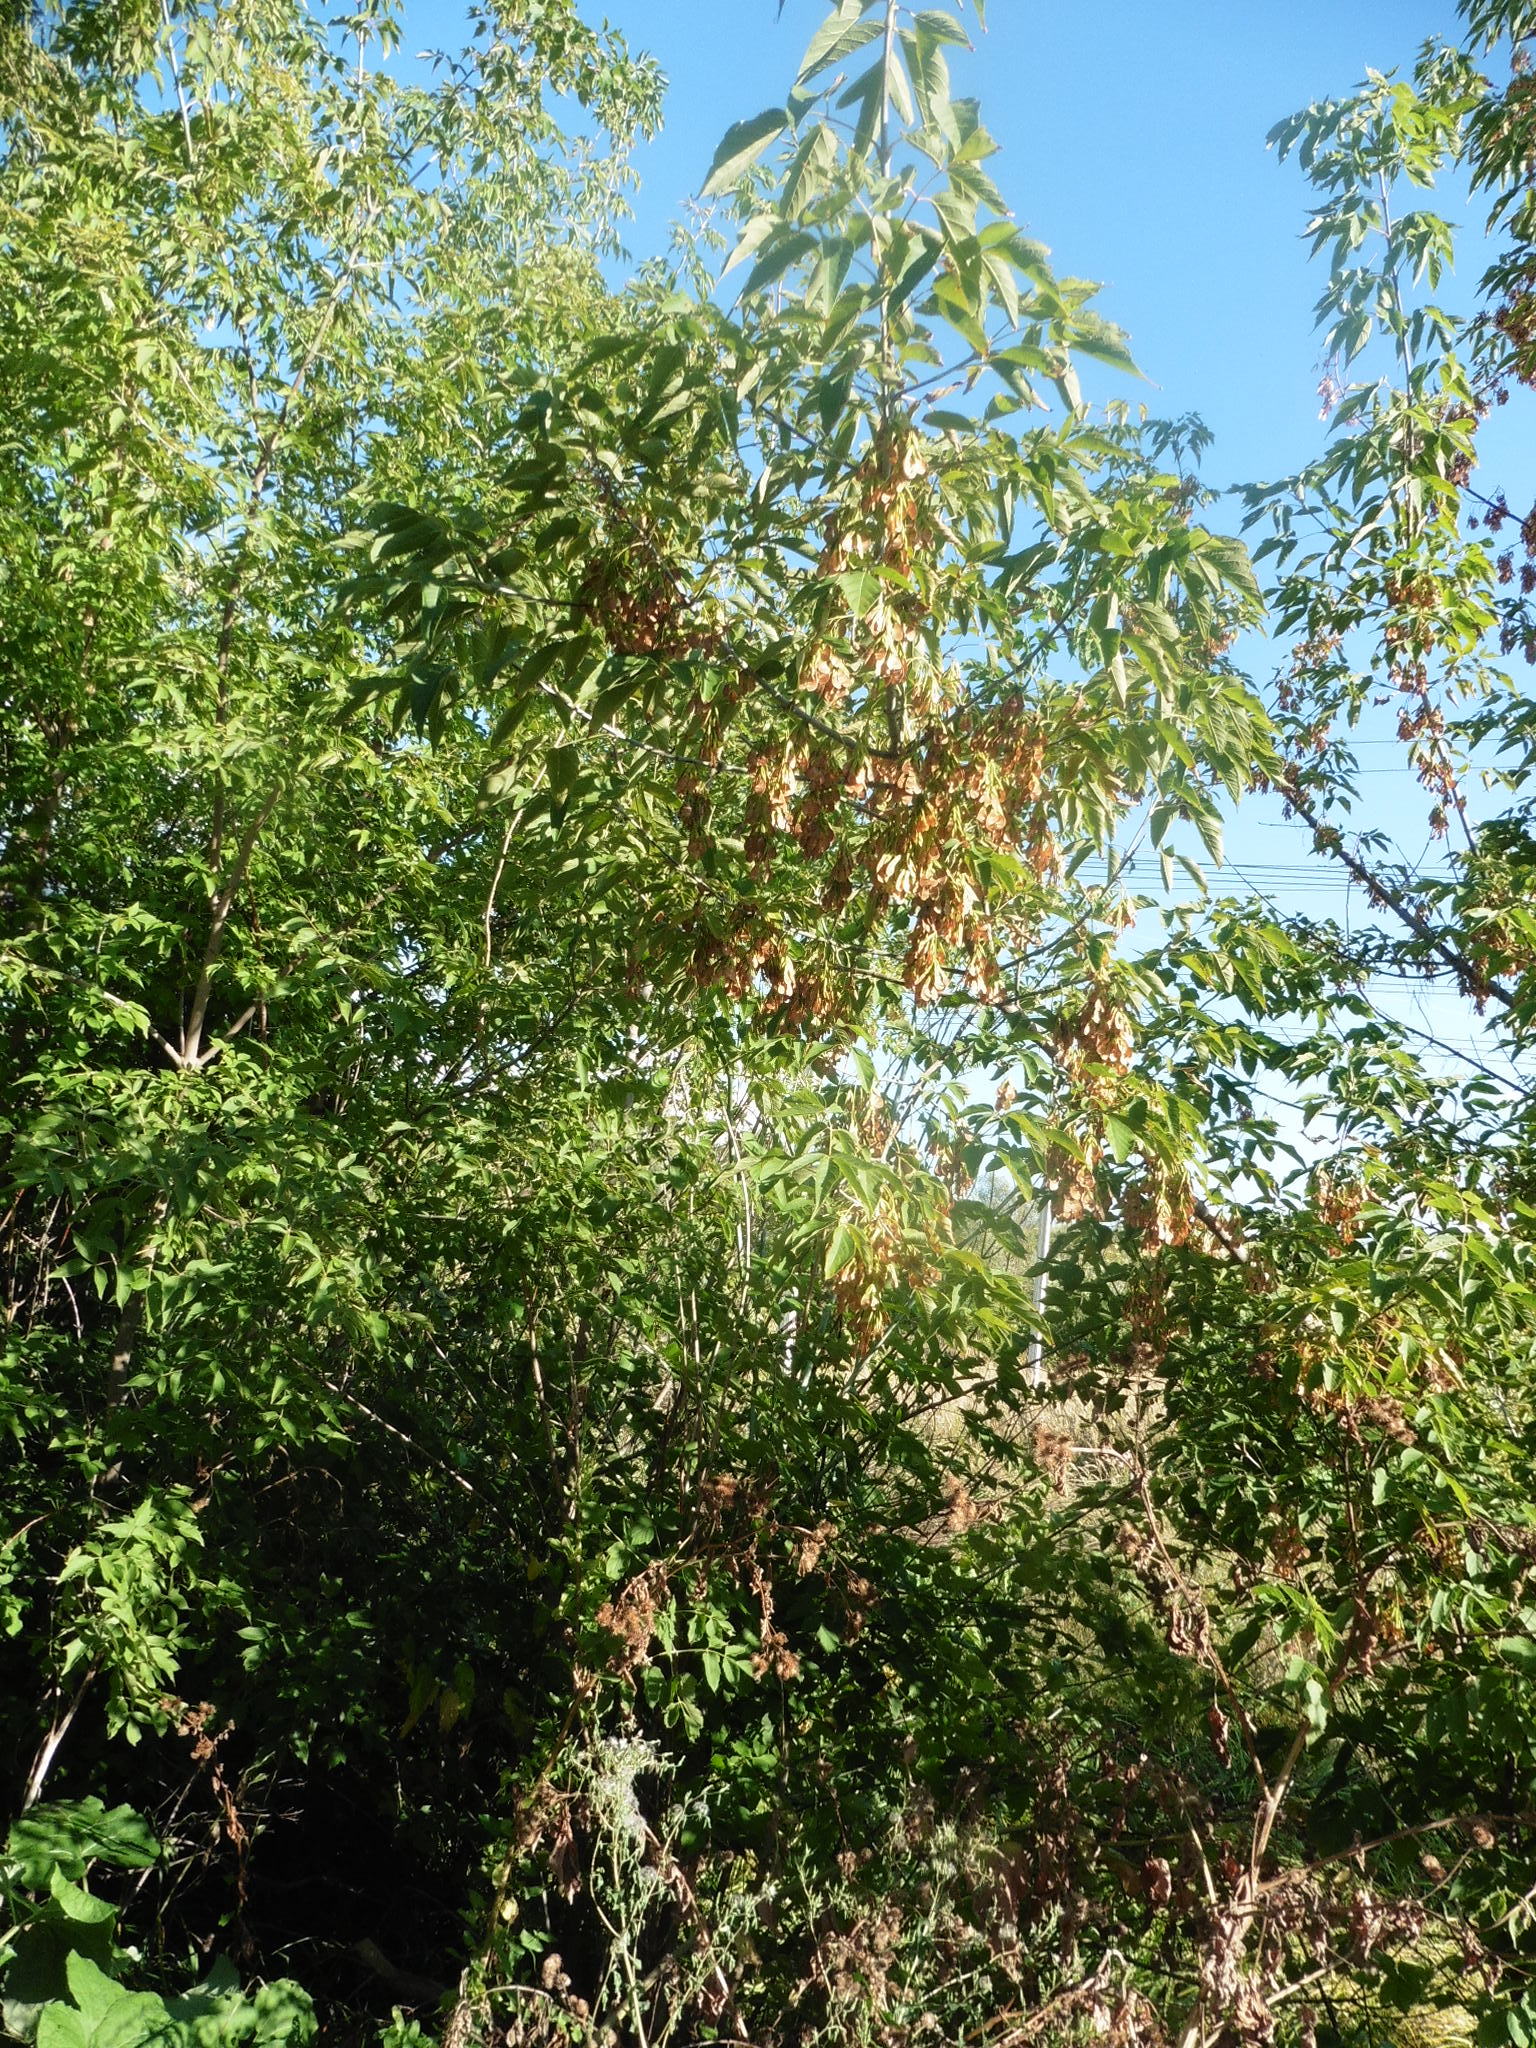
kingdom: Plantae
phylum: Tracheophyta
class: Magnoliopsida
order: Sapindales
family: Sapindaceae
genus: Acer
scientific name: Acer negundo
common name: Ashleaf maple
